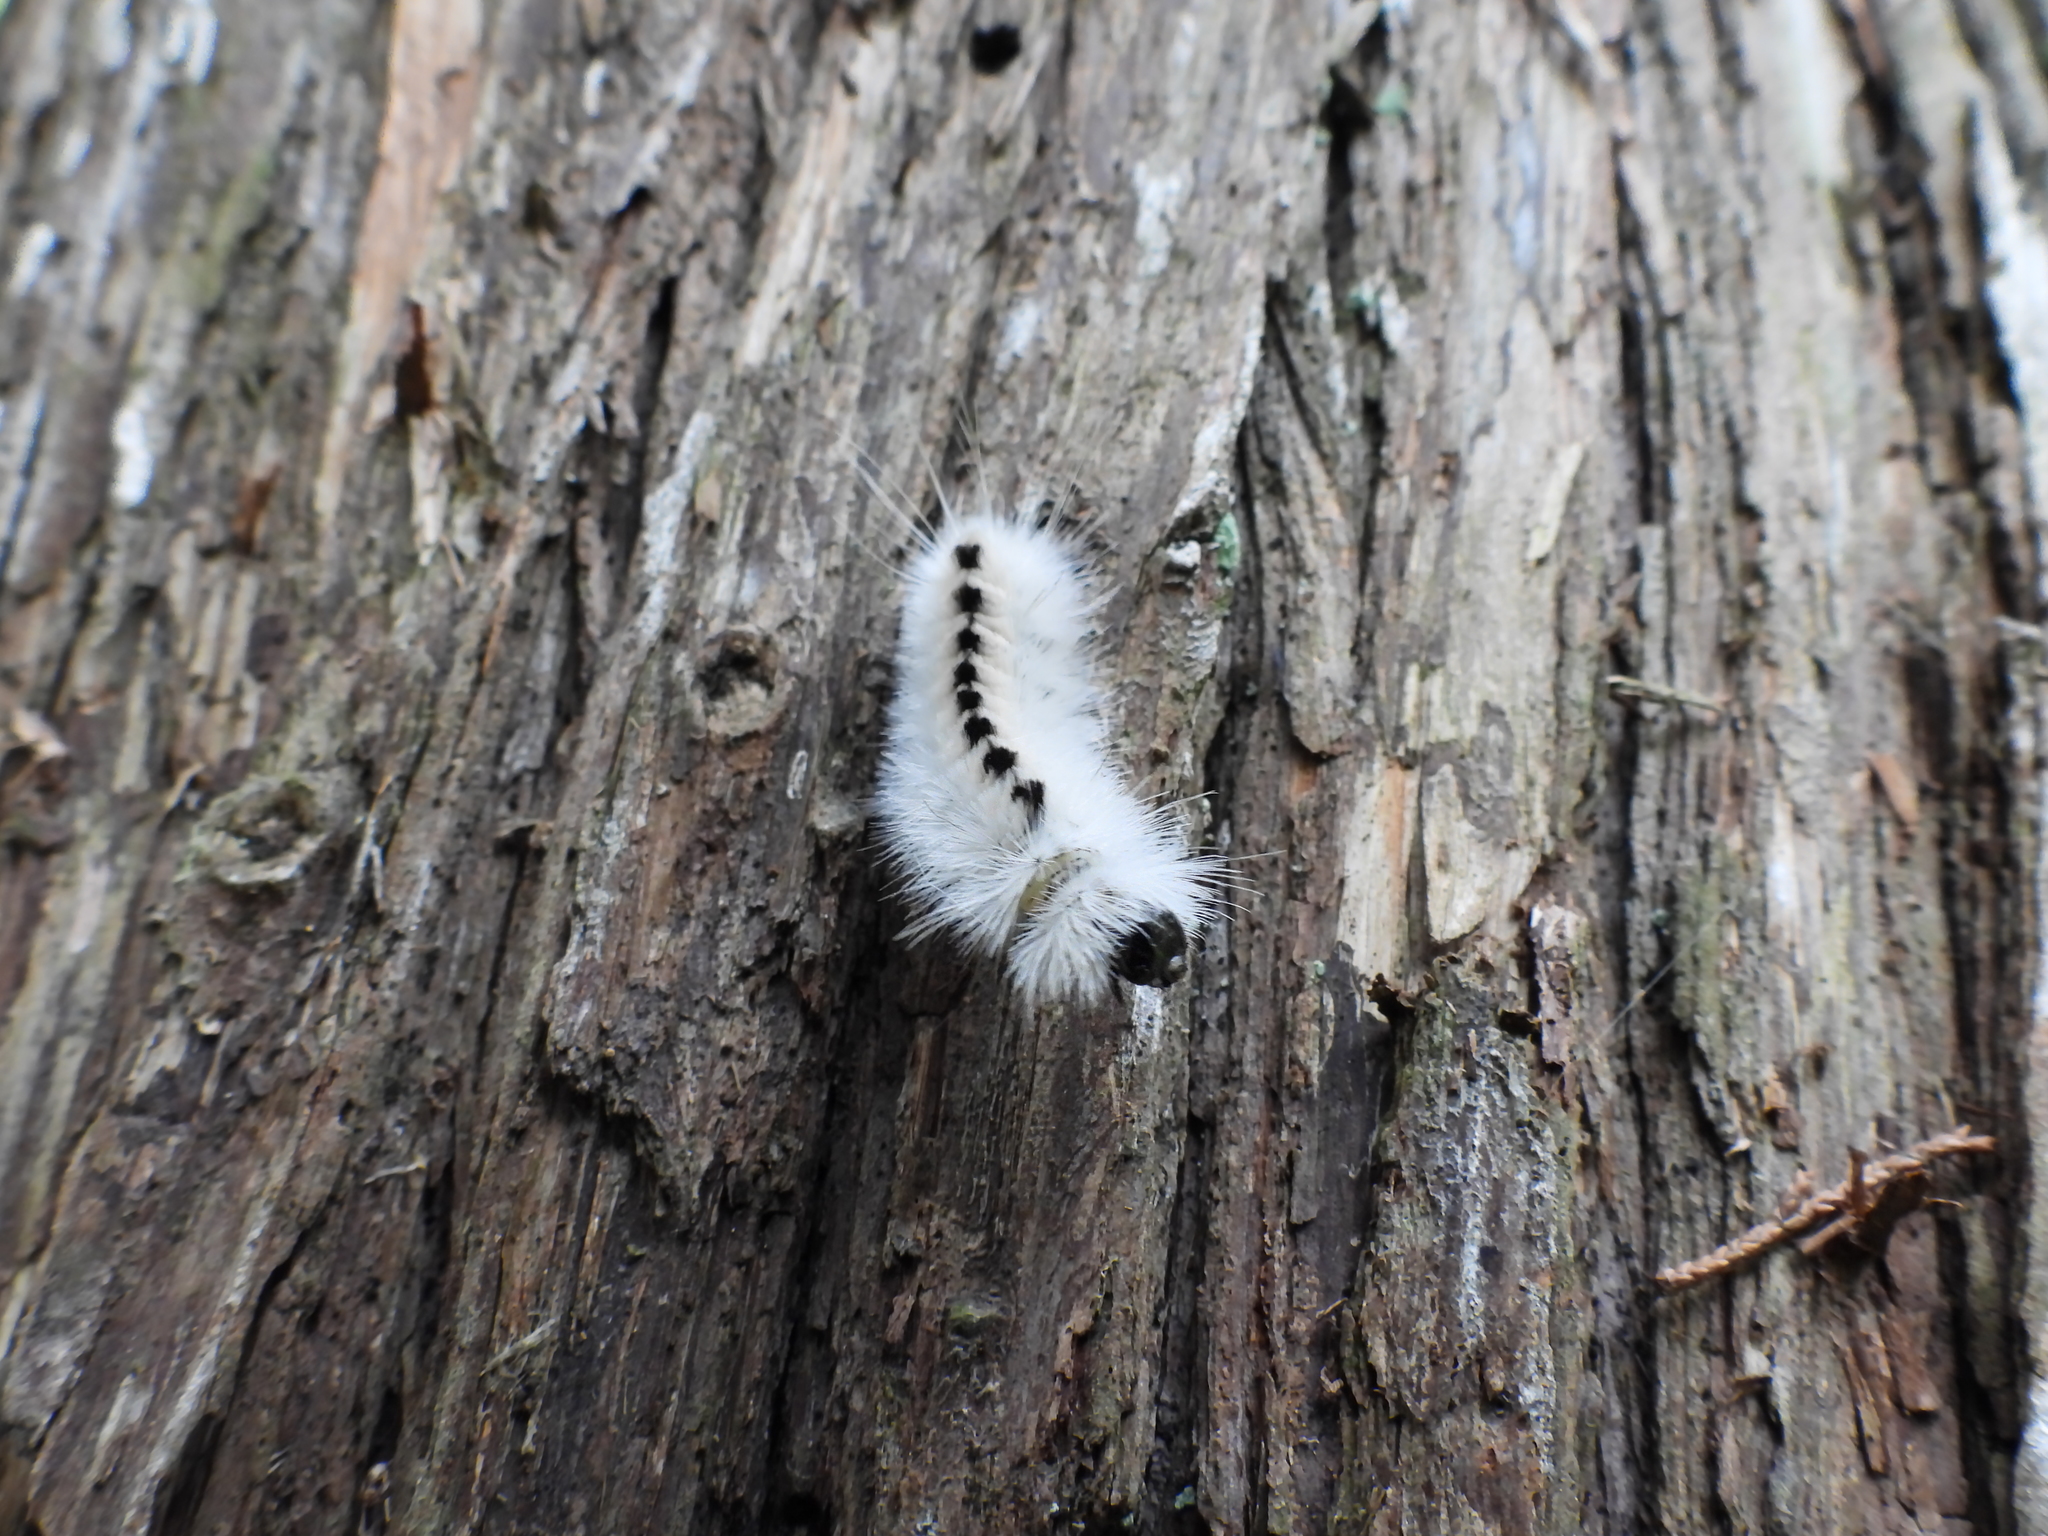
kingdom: Animalia
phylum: Arthropoda
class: Insecta
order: Lepidoptera
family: Erebidae
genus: Lophocampa
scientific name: Lophocampa caryae
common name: Hickory tussock moth
